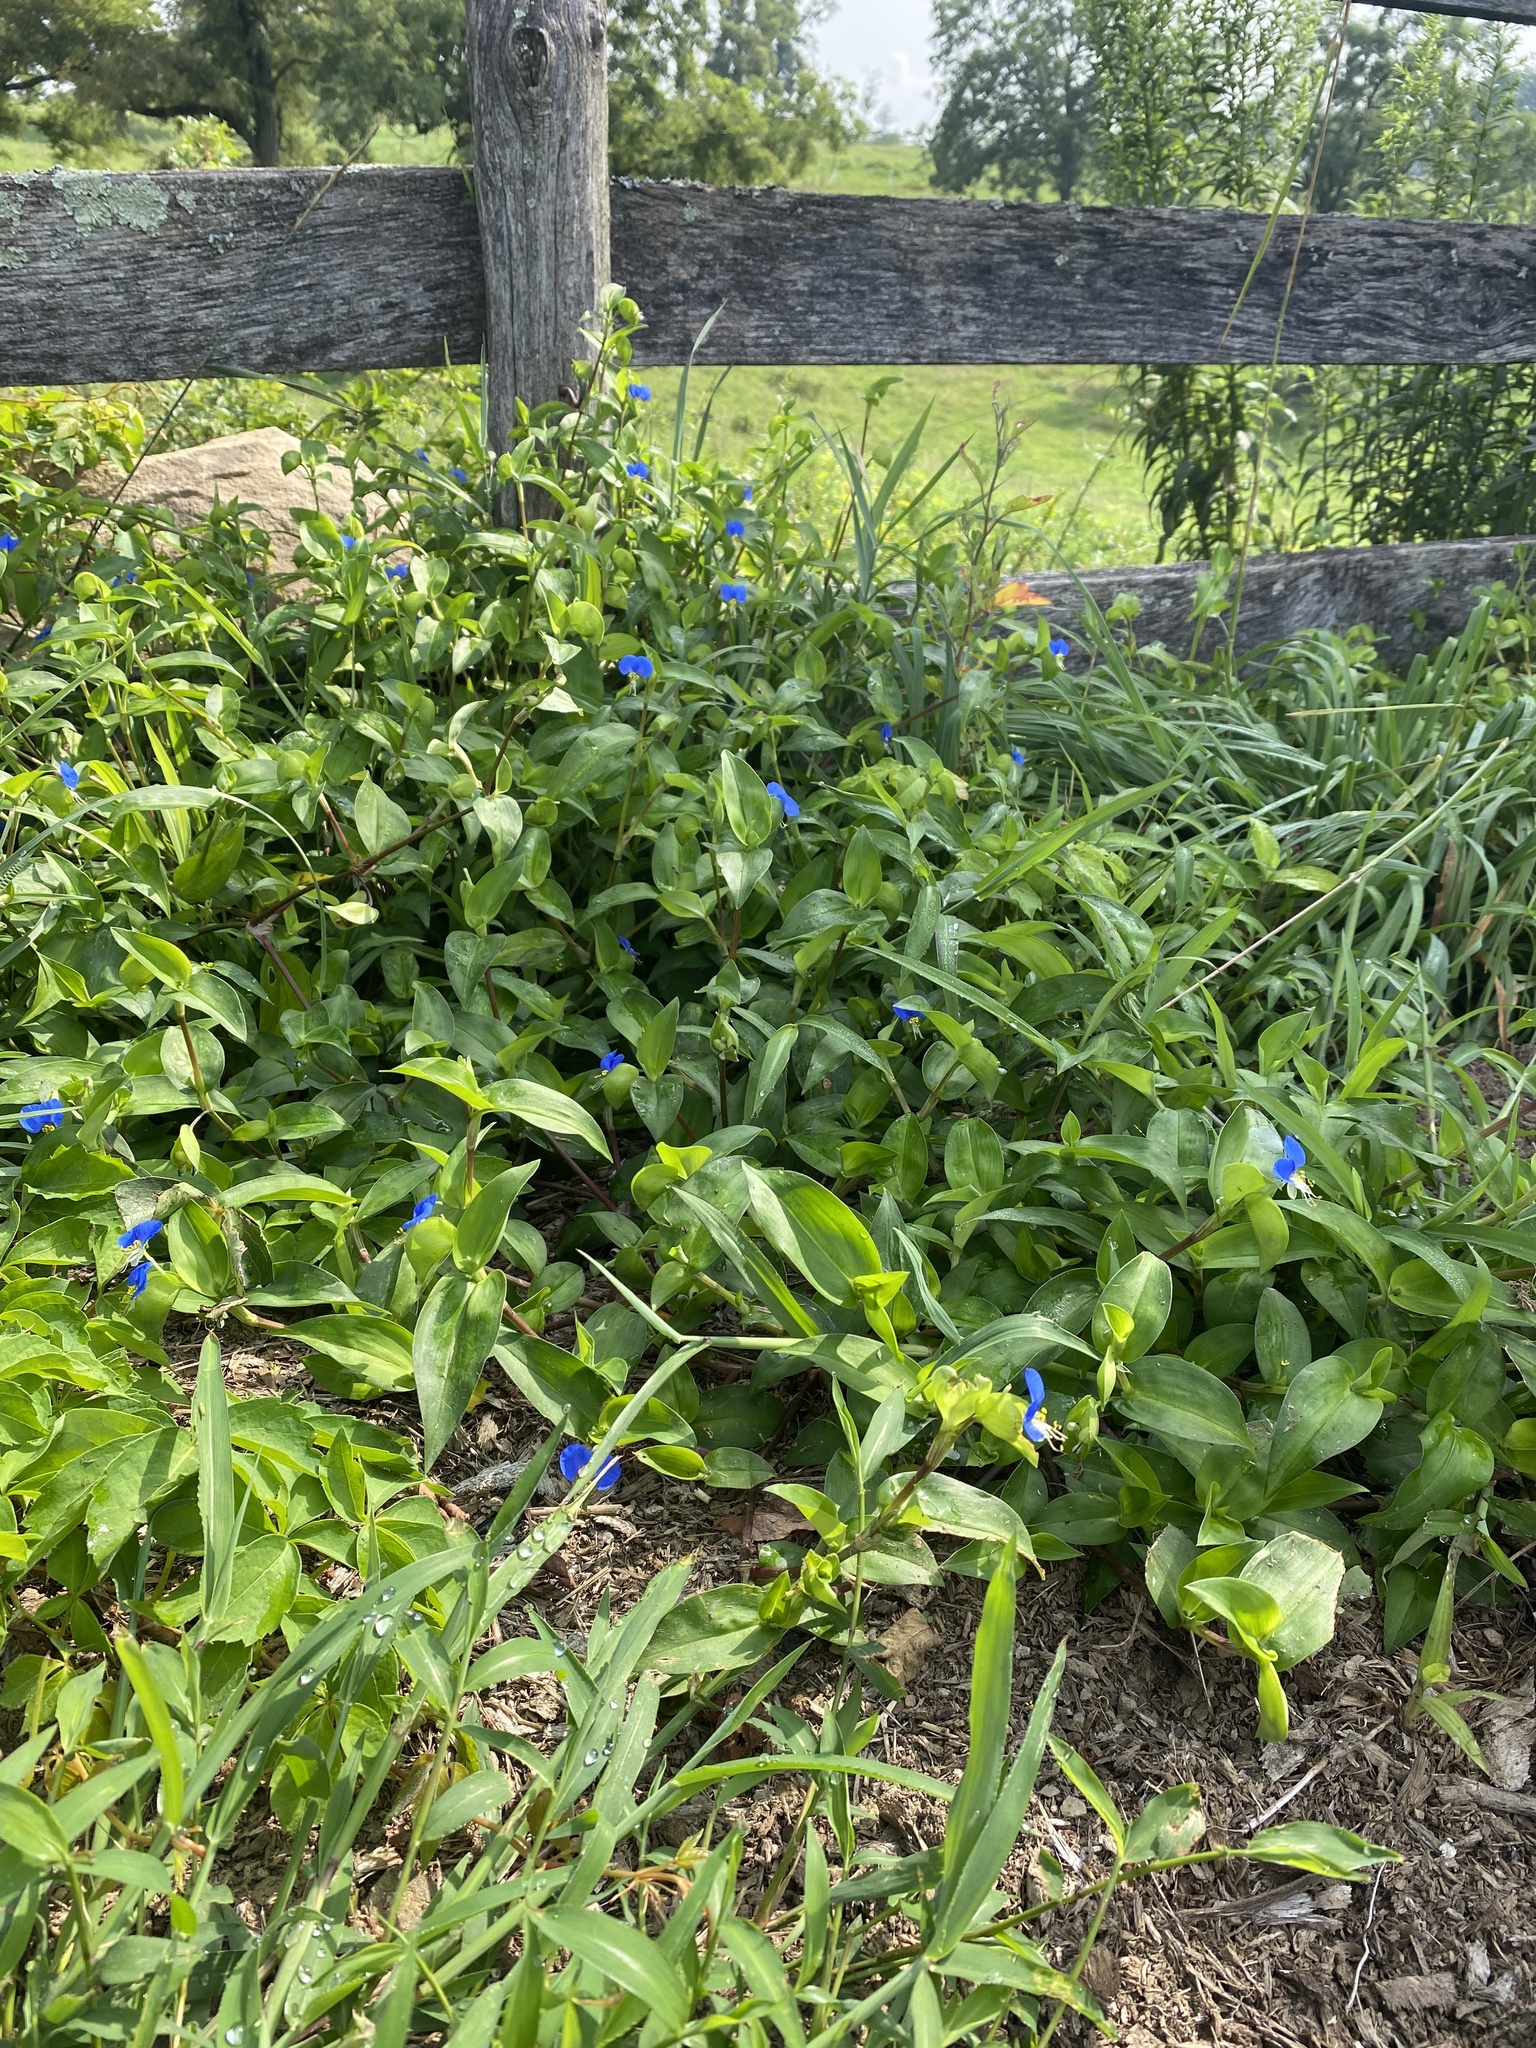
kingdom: Plantae
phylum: Tracheophyta
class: Liliopsida
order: Commelinales
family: Commelinaceae
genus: Commelina
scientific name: Commelina communis
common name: Asiatic dayflower
